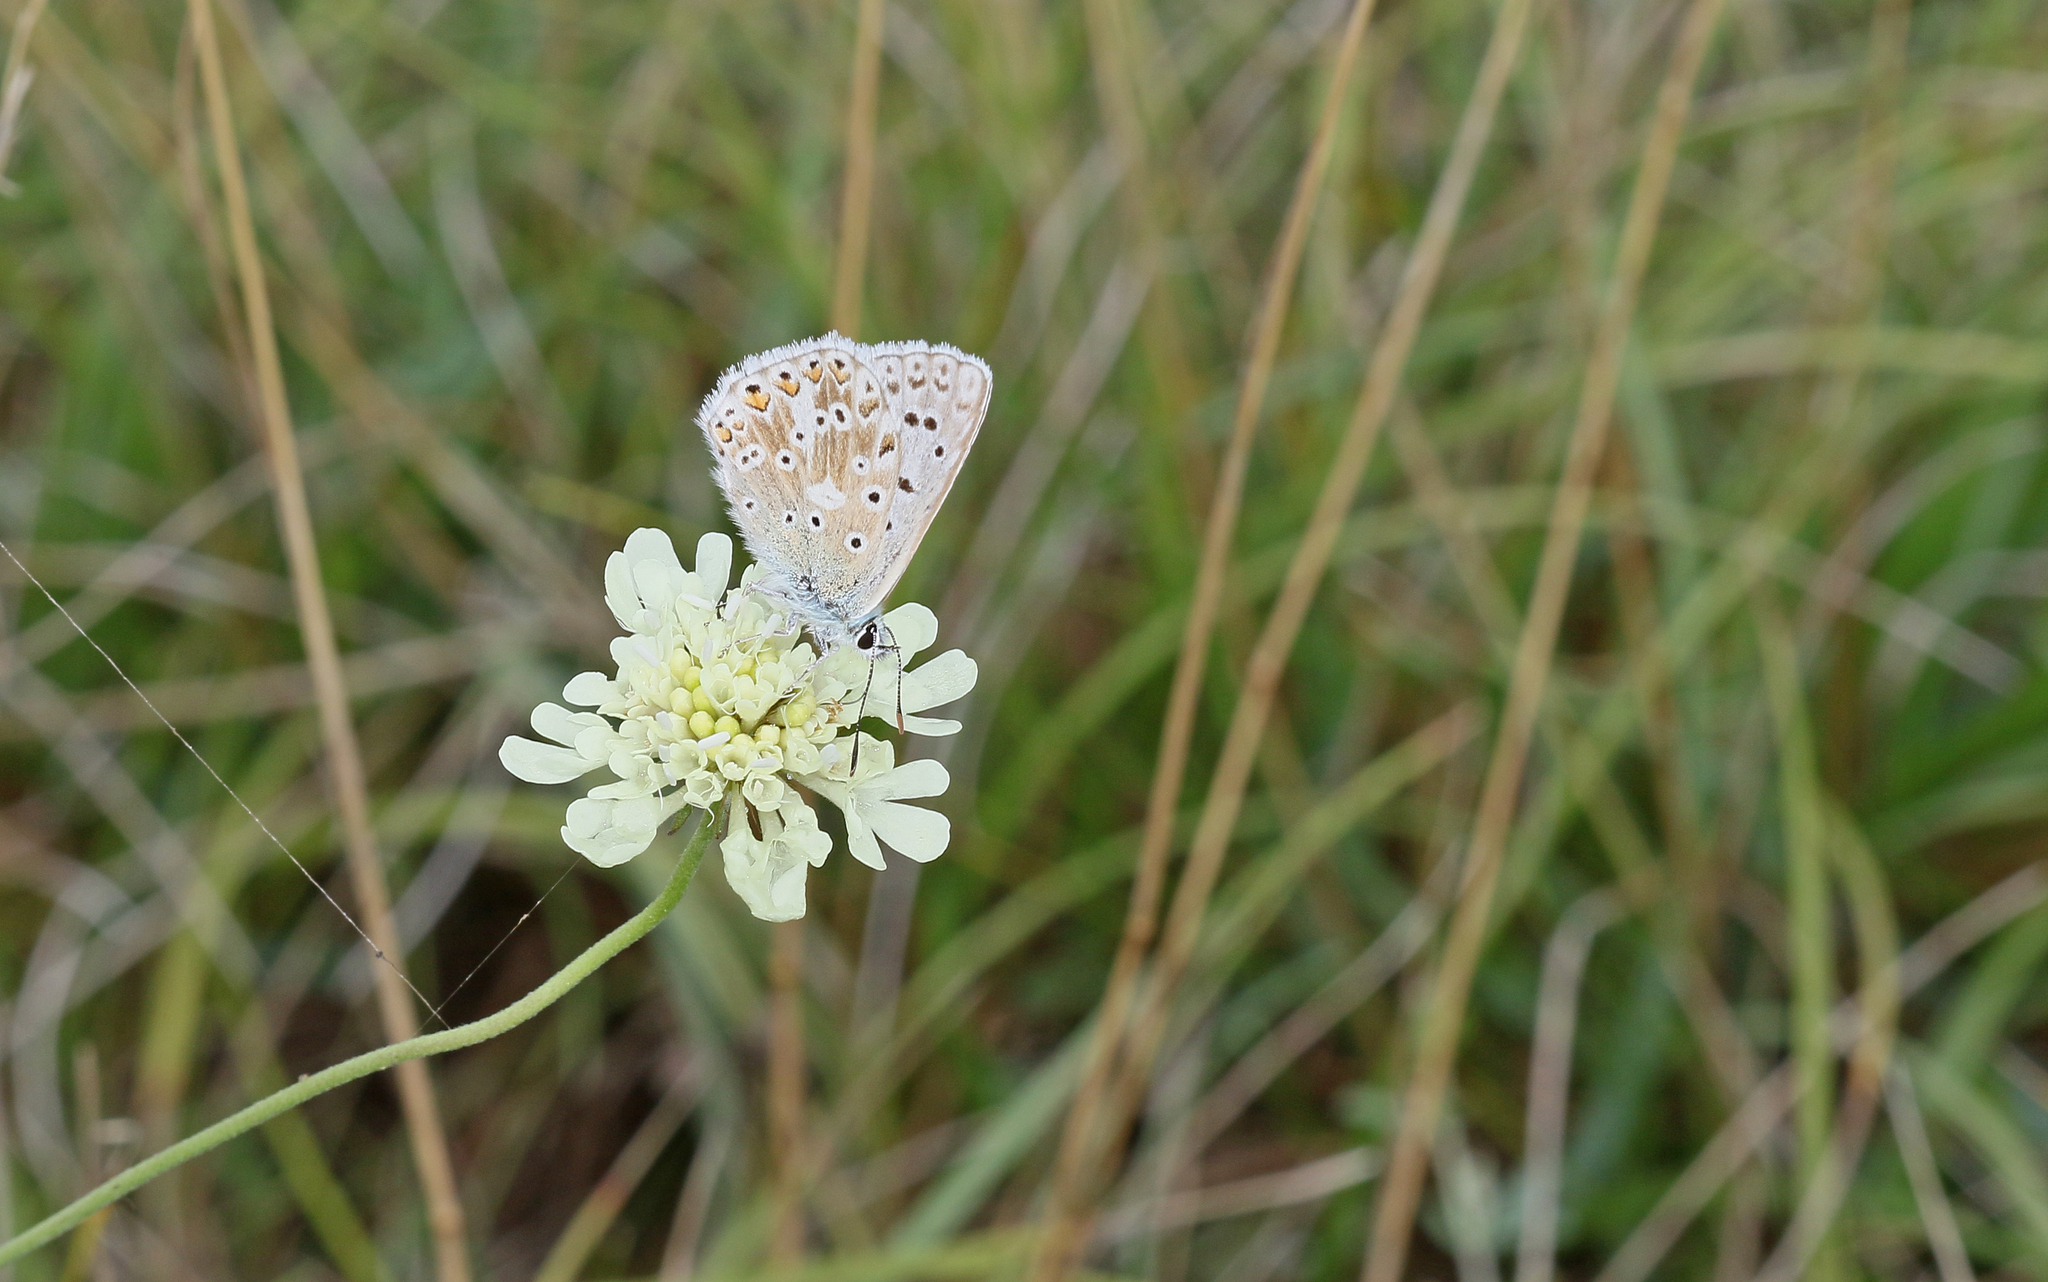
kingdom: Animalia
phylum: Arthropoda
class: Insecta
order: Lepidoptera
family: Lycaenidae
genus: Lysandra
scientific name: Lysandra coridon
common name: Chalkhill blue
